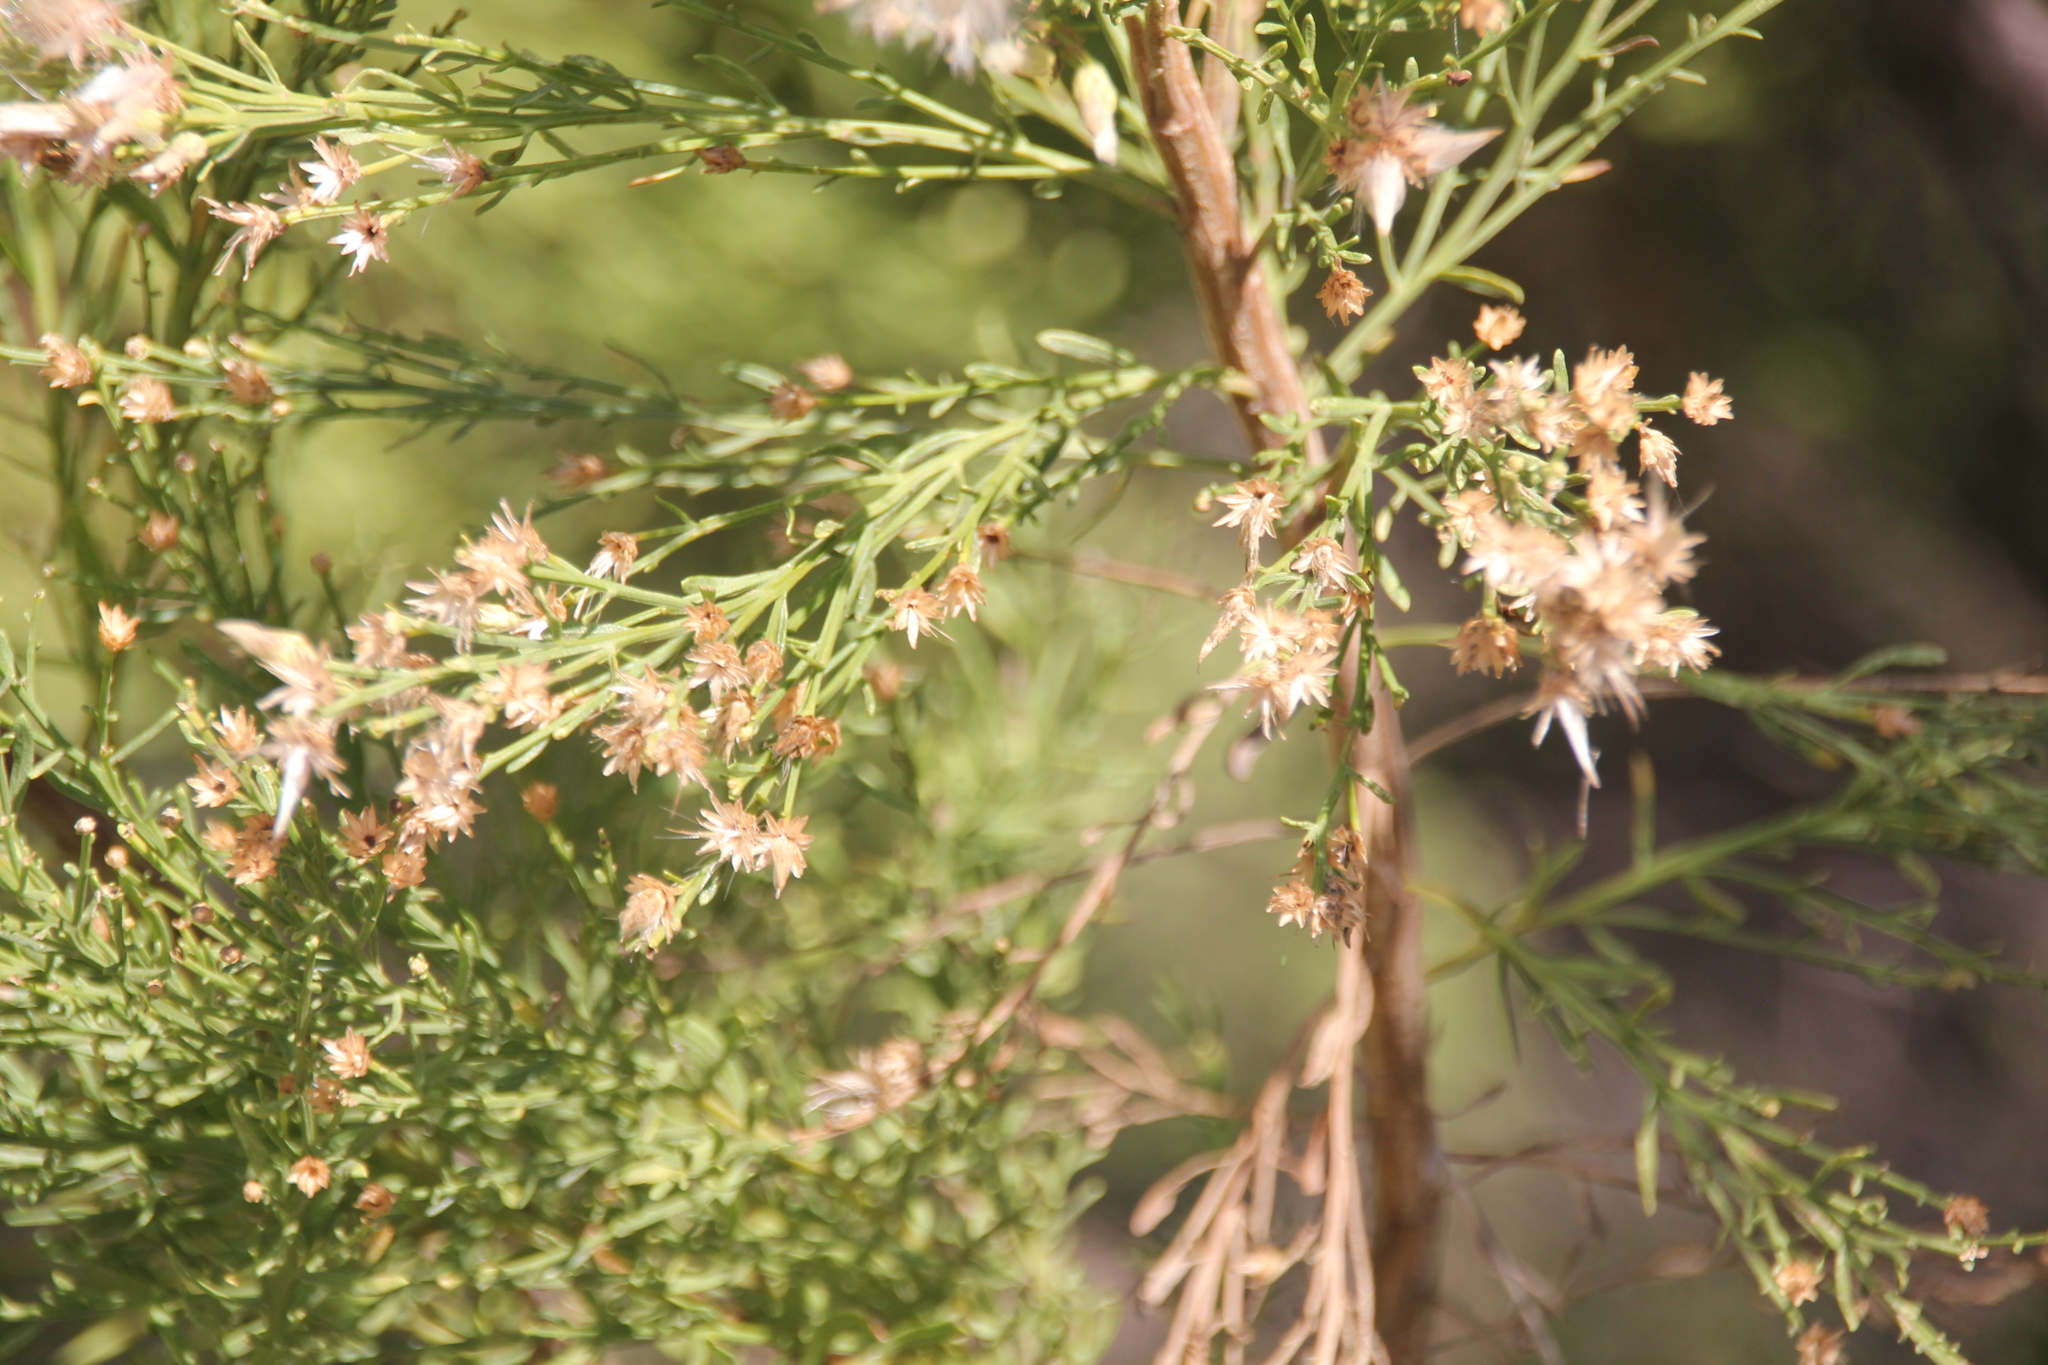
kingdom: Plantae
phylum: Tracheophyta
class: Magnoliopsida
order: Asterales
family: Asteraceae
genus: Baccharis
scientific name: Baccharis sarothroides
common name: Desert-broom
